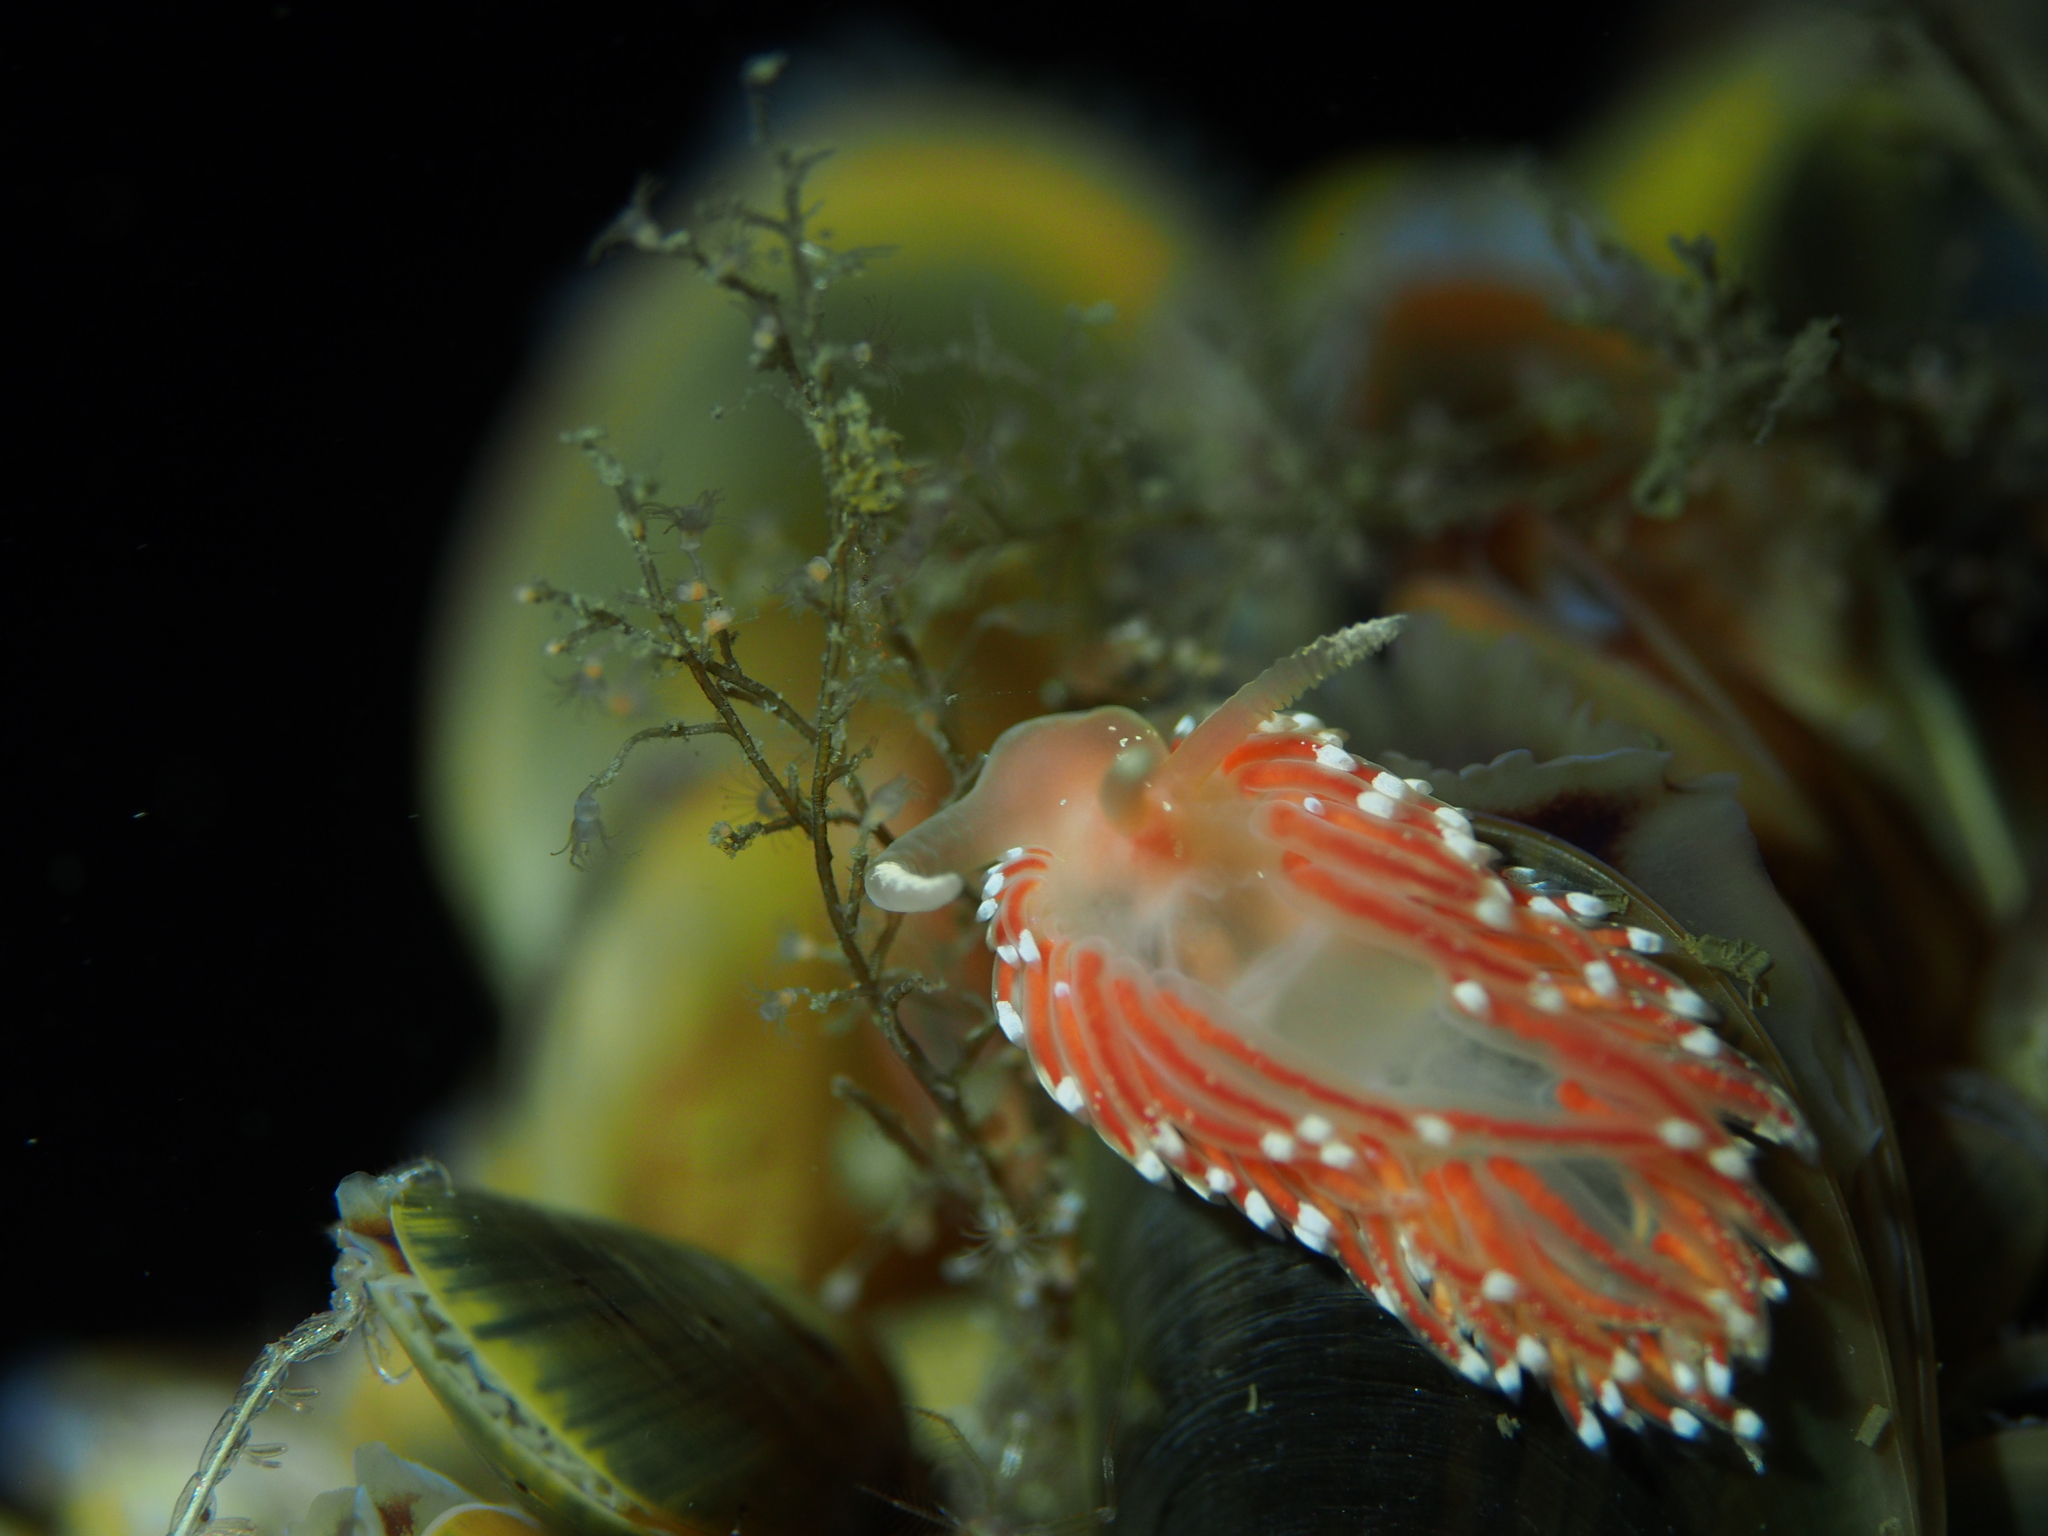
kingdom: Animalia
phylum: Mollusca
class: Gastropoda
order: Nudibranchia
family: Facelinidae
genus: Facelina
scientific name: Facelina bostoniensis
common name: Boston facelina
